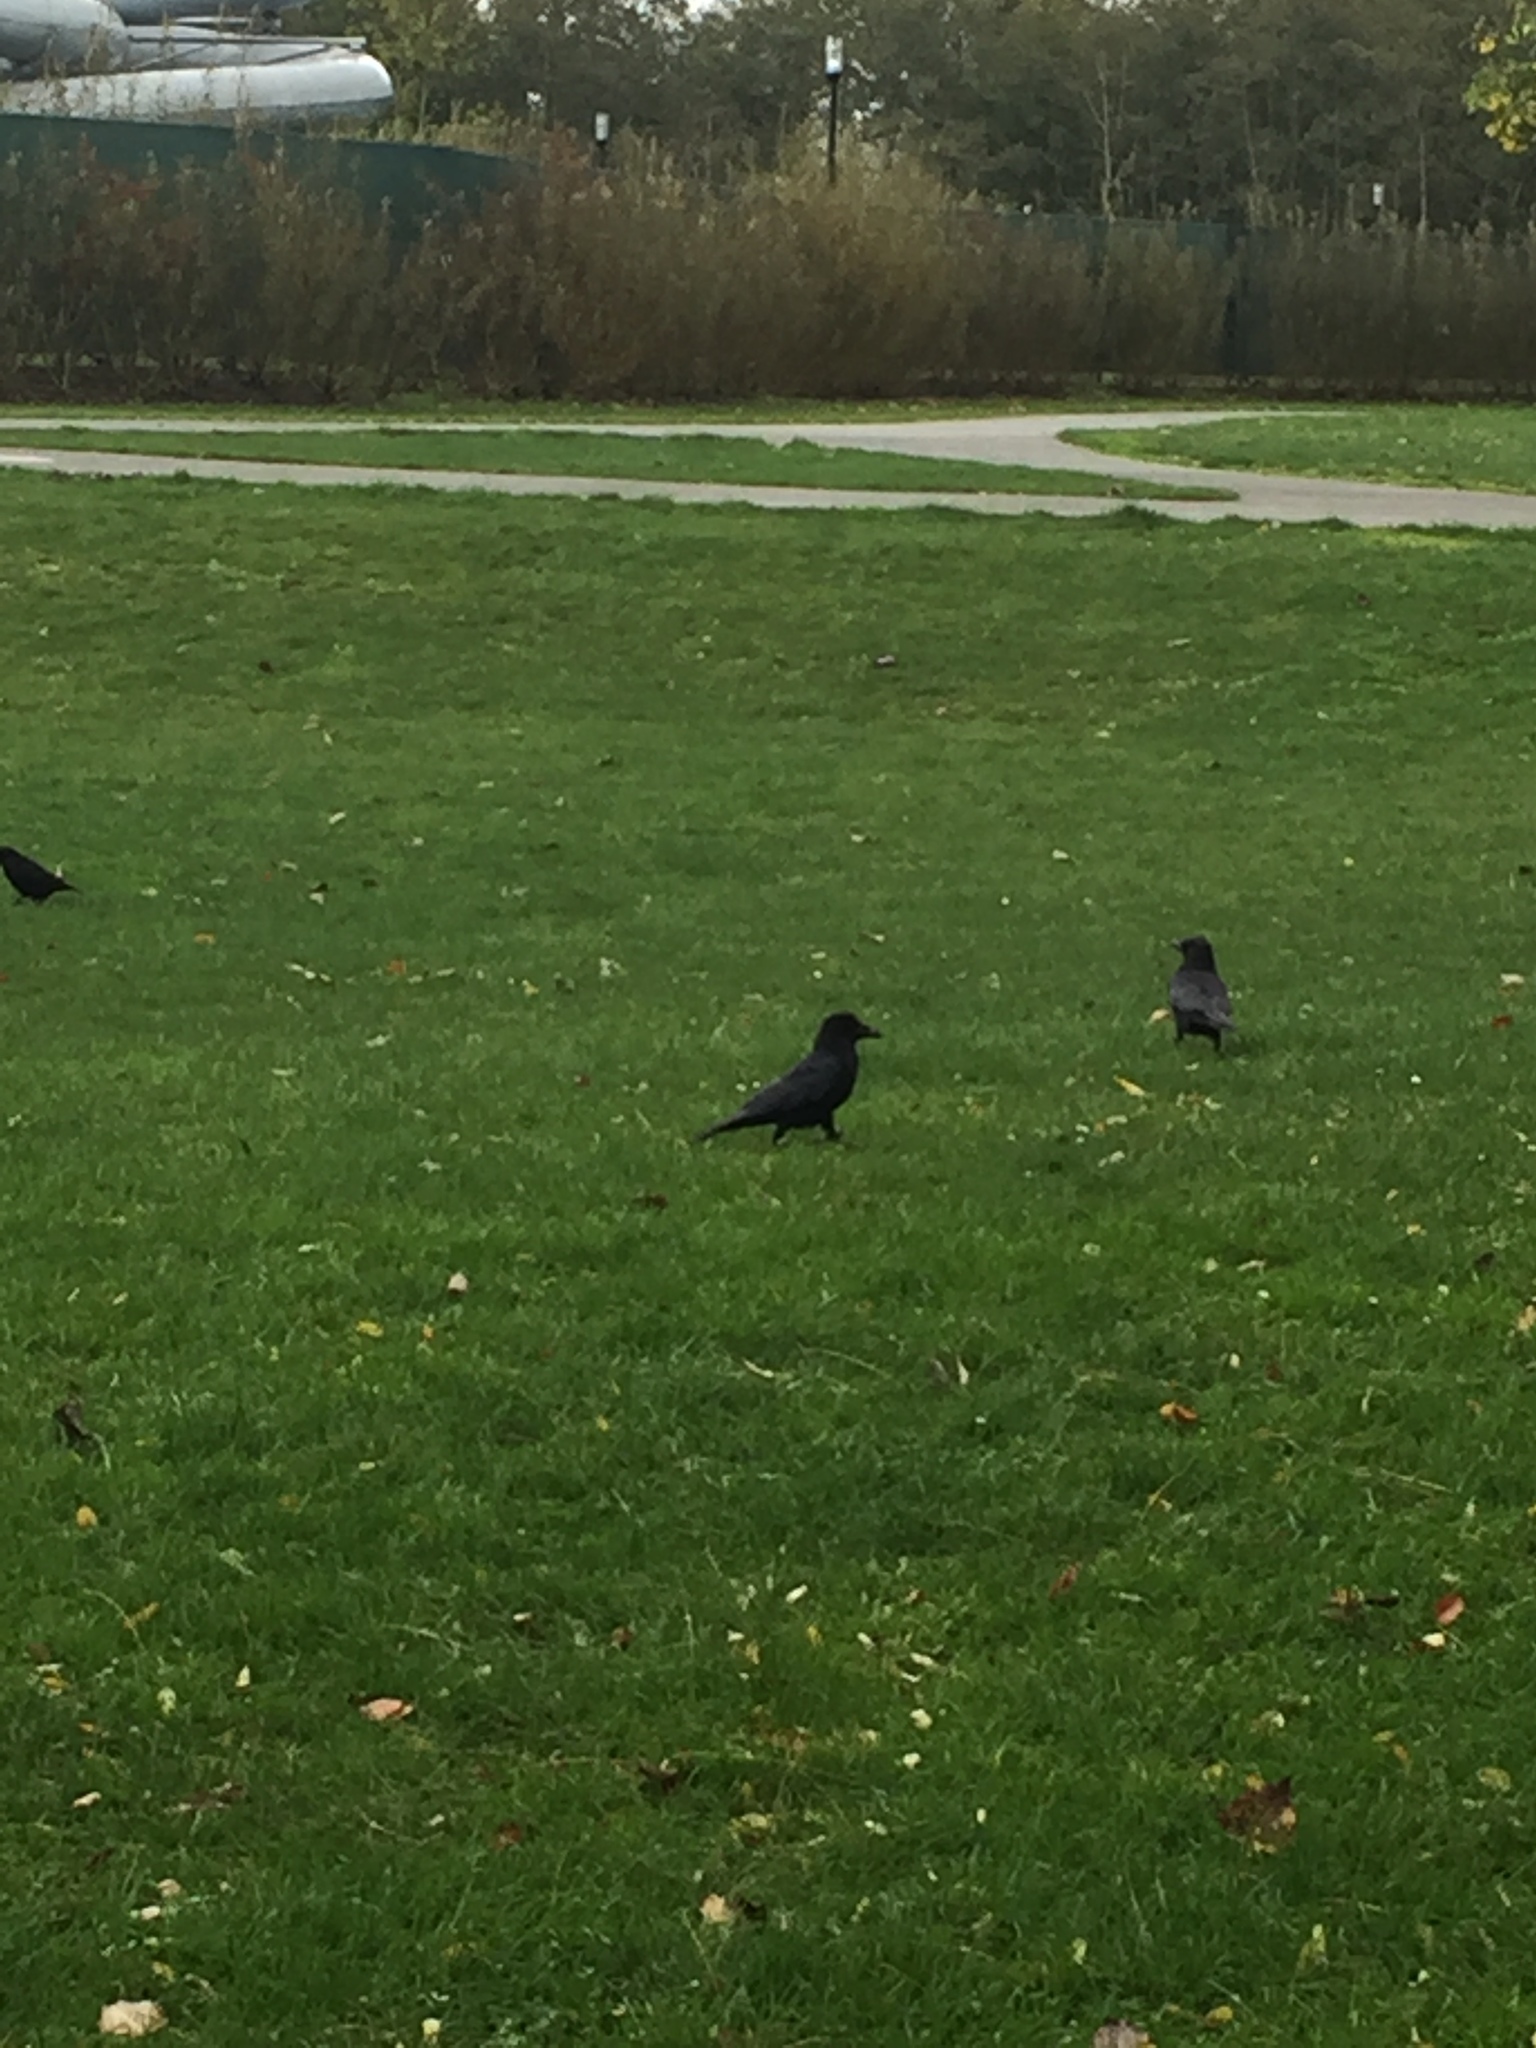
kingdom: Animalia
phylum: Chordata
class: Aves
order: Passeriformes
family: Corvidae
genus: Corvus
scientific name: Corvus corone
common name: Carrion crow
